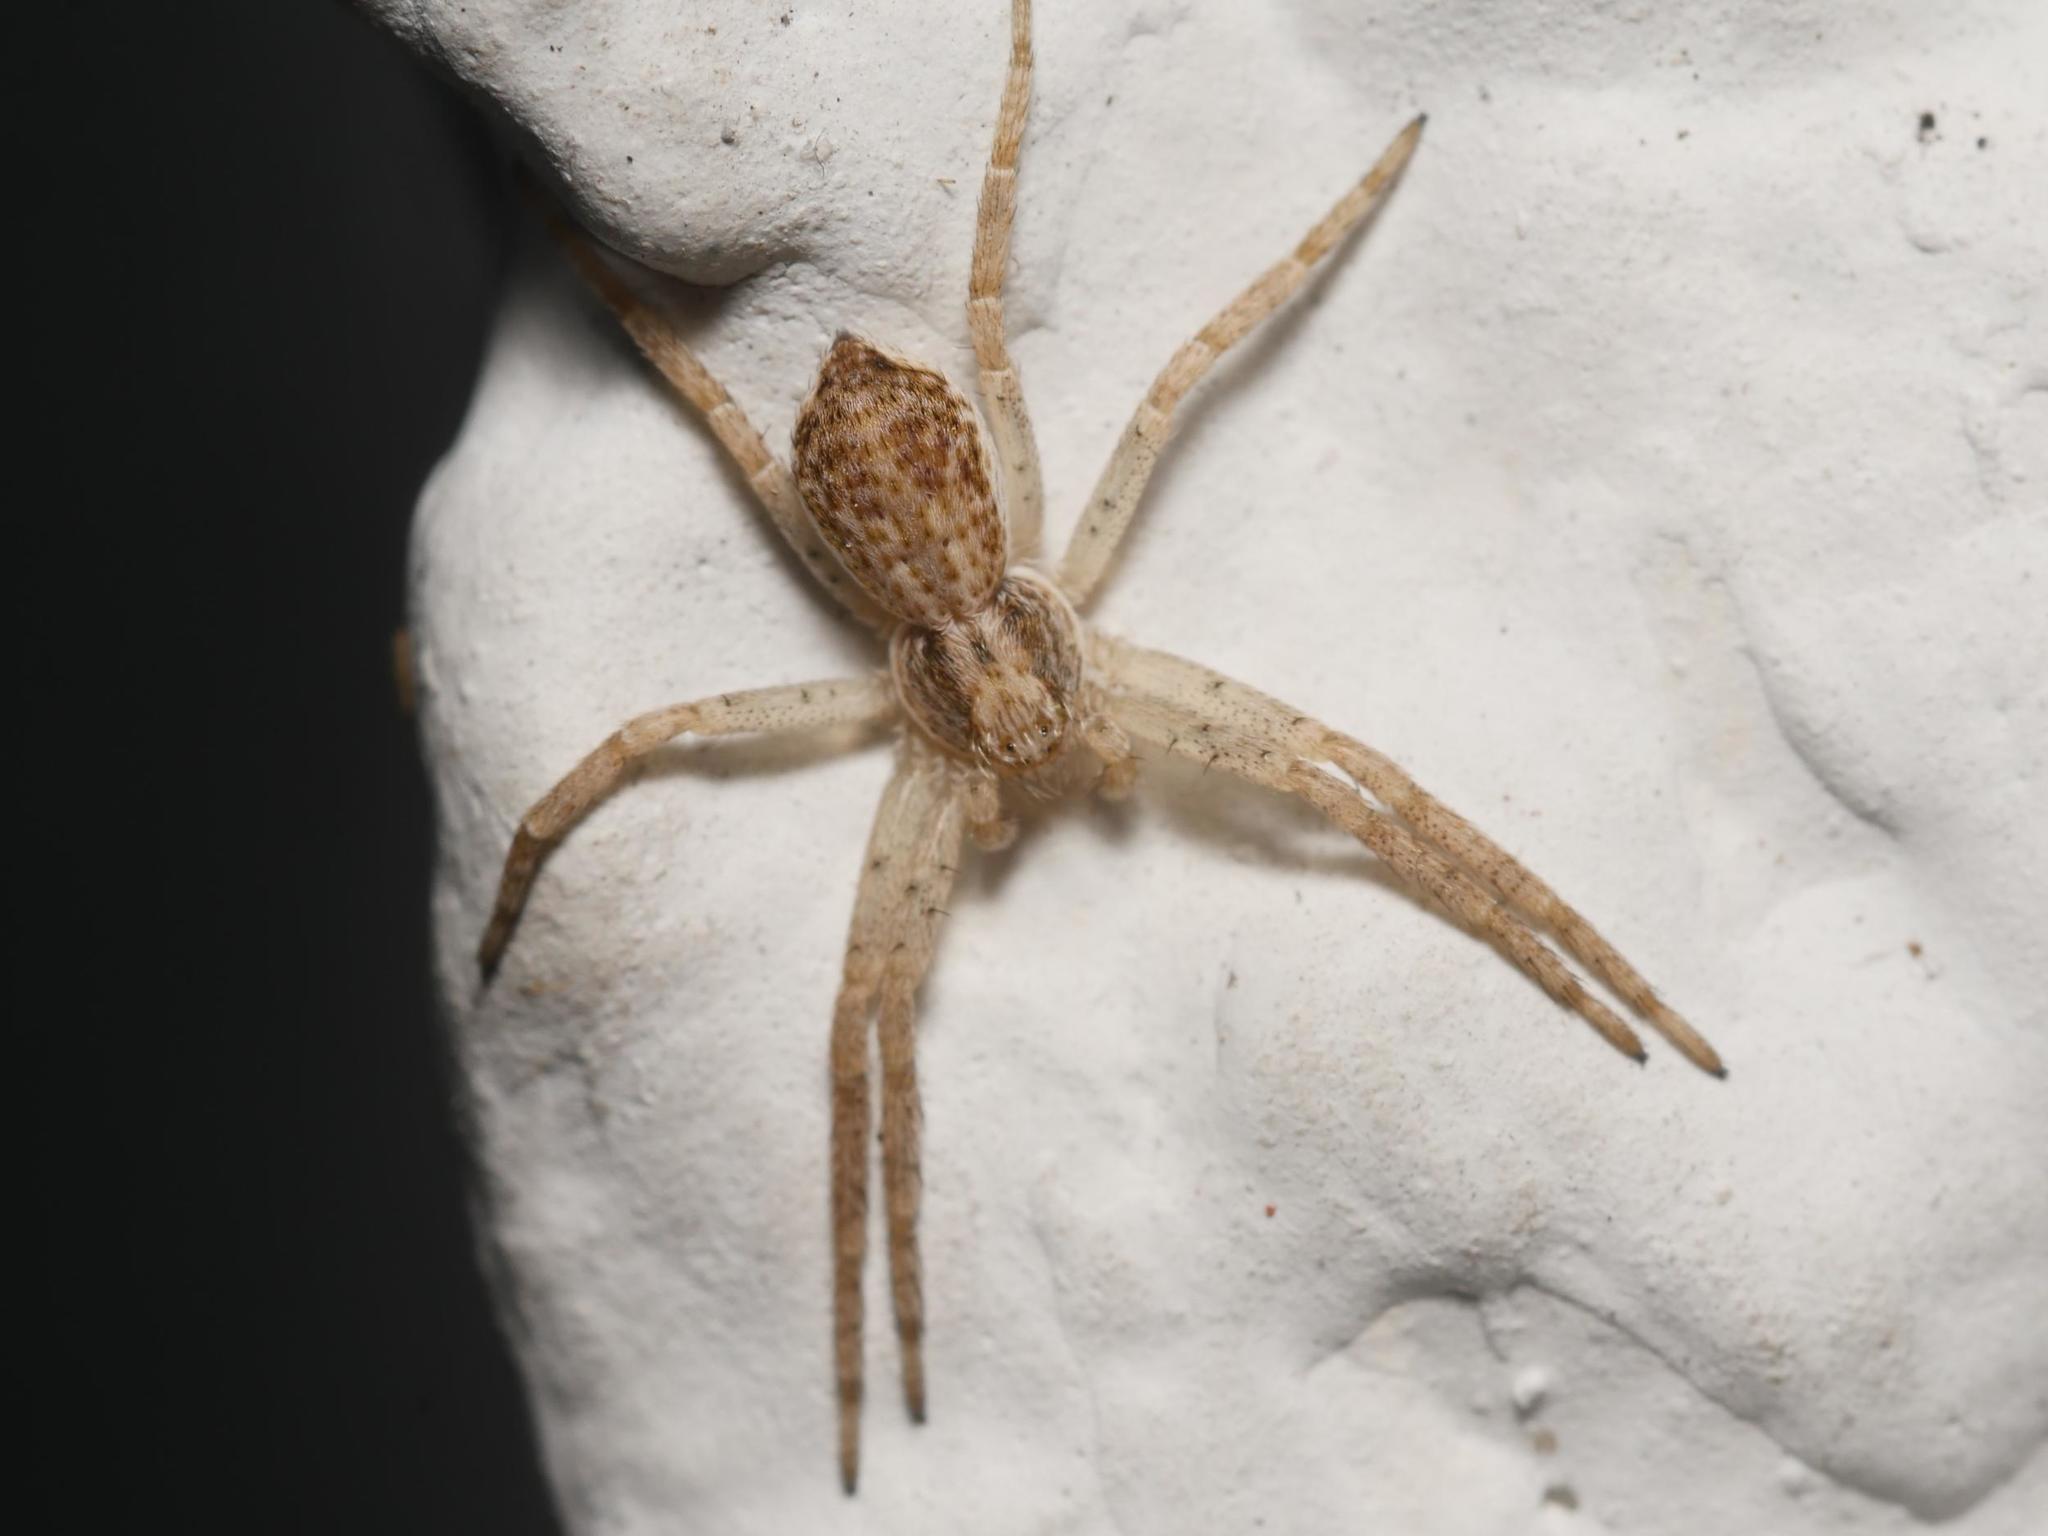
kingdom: Animalia
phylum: Arthropoda
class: Arachnida
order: Araneae
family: Philodromidae
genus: Philodromus
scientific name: Philodromus dispar
